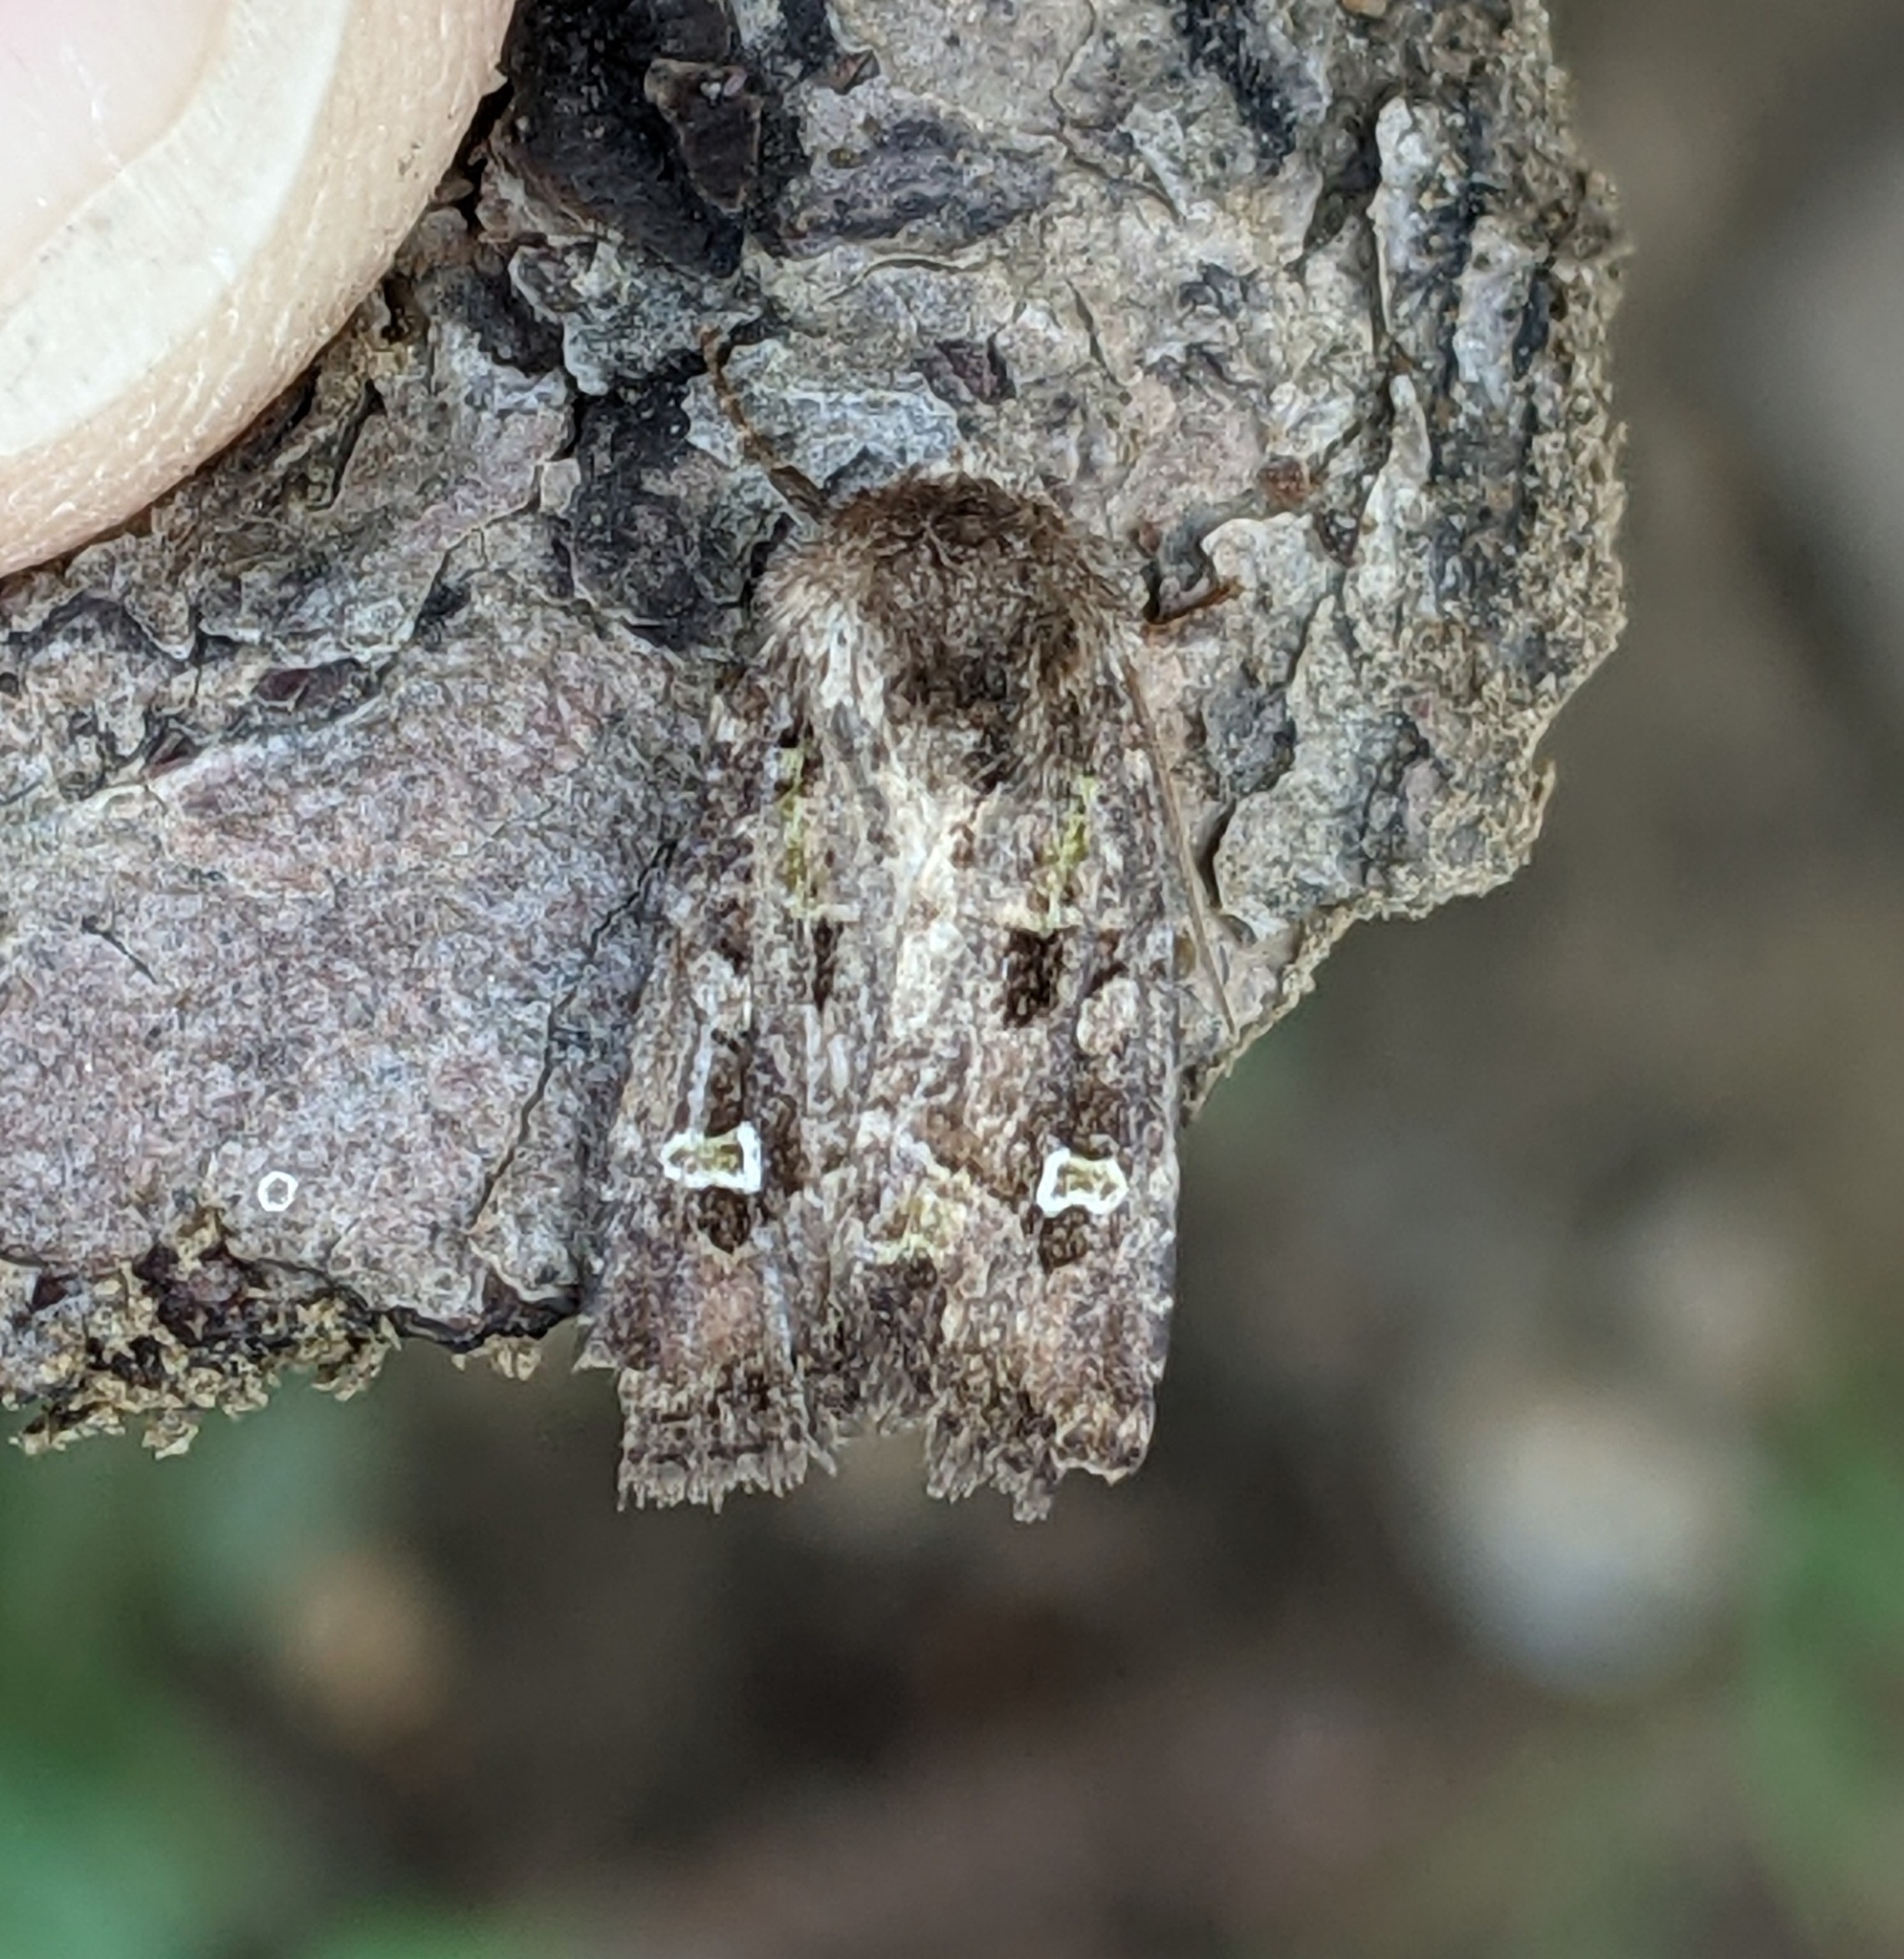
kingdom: Animalia
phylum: Arthropoda
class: Insecta
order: Lepidoptera
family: Noctuidae
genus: Lacinipolia
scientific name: Lacinipolia renigera
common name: Kidney-spotted minor
